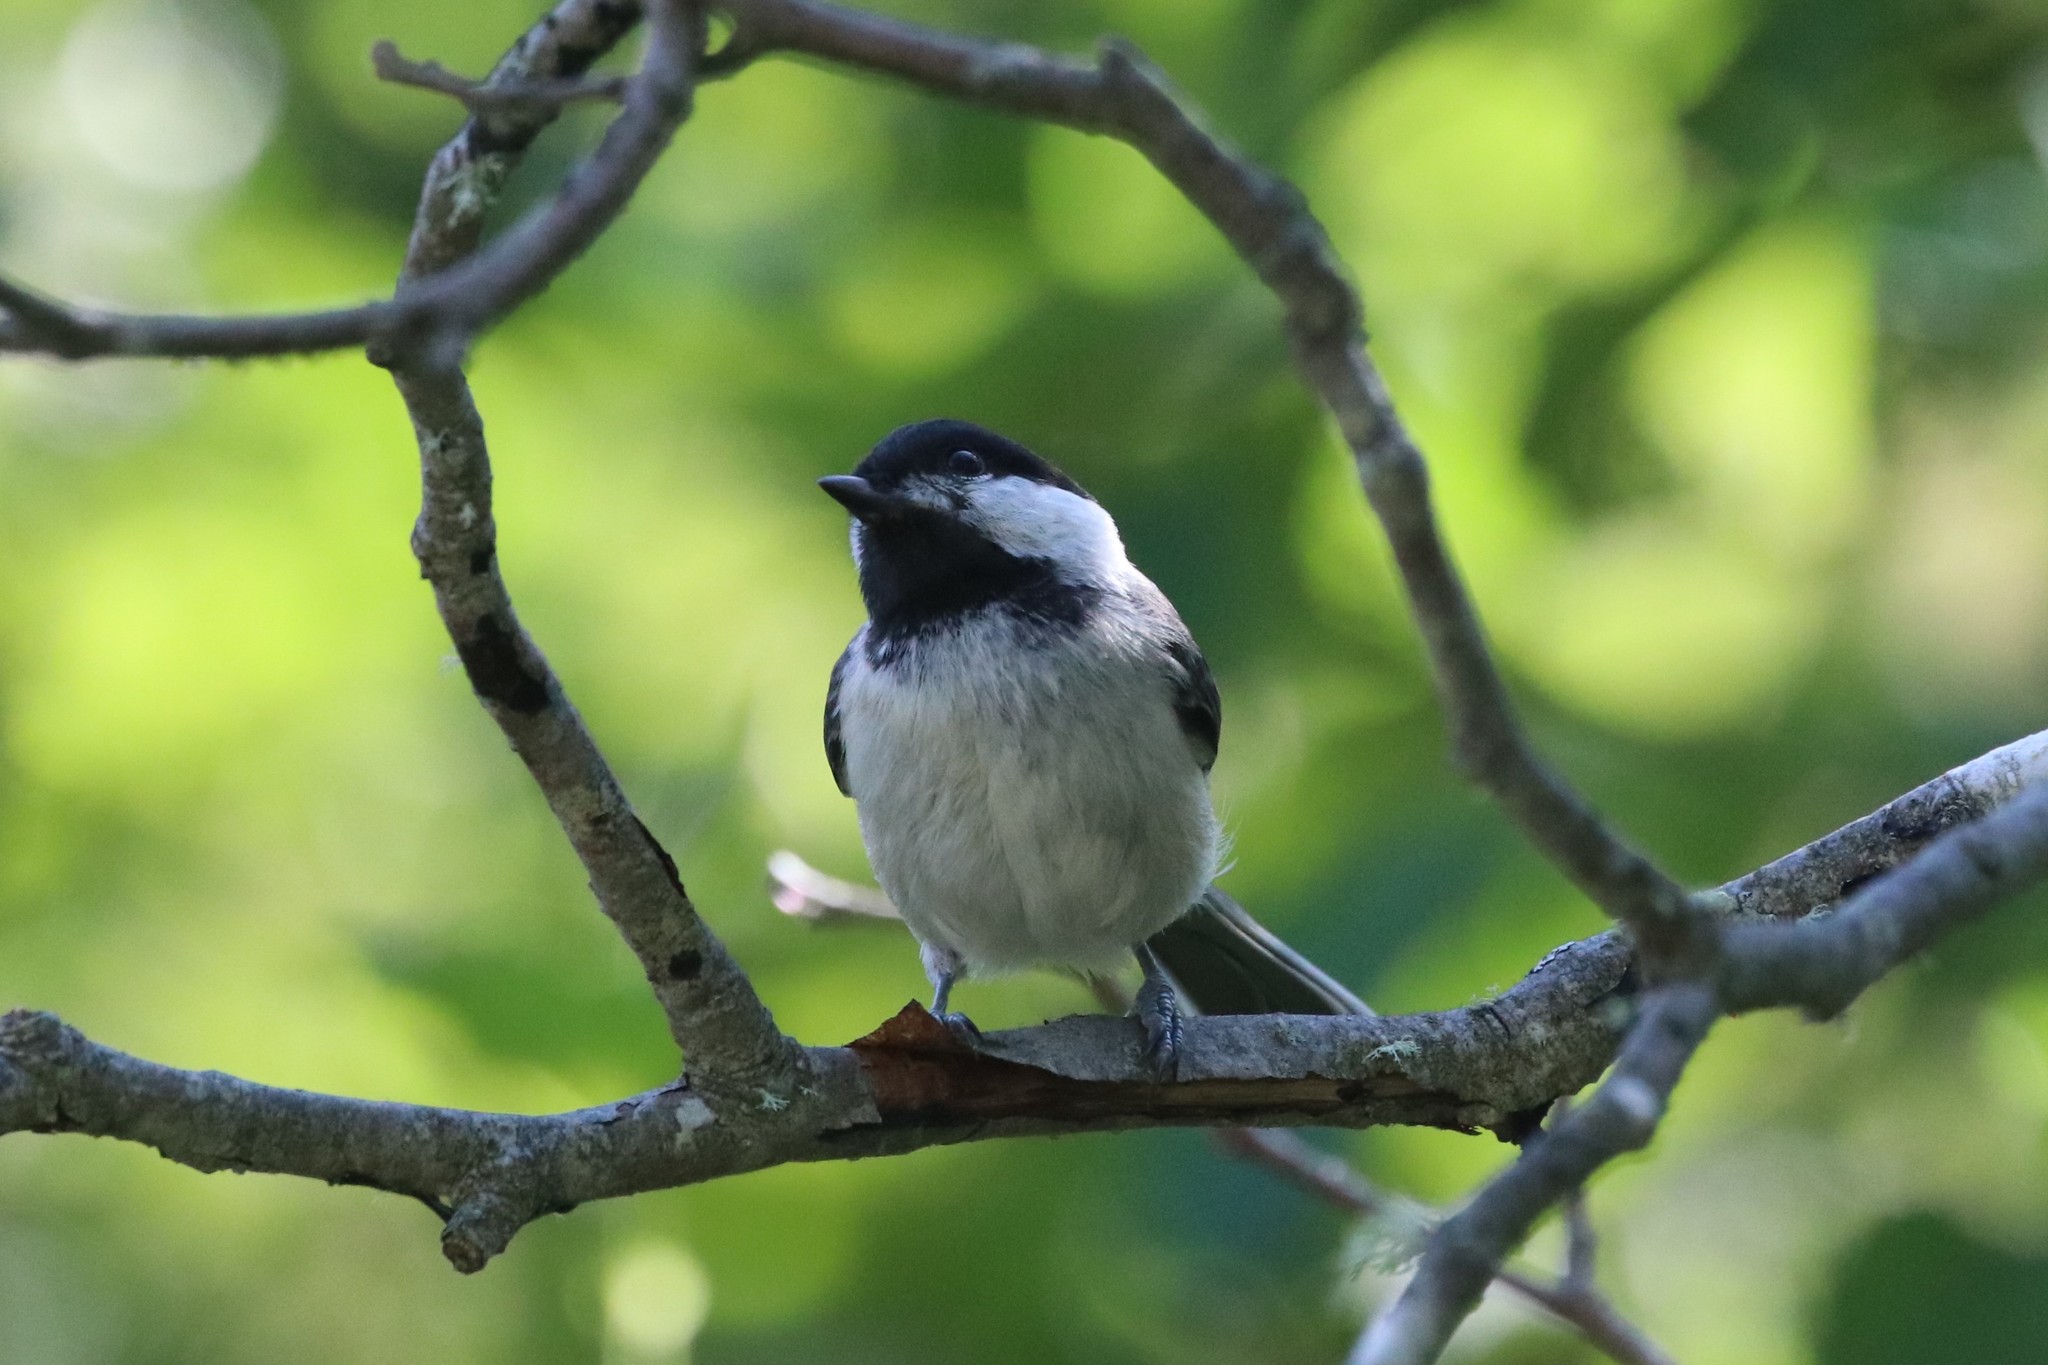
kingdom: Animalia
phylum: Chordata
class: Aves
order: Passeriformes
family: Paridae
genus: Poecile
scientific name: Poecile atricapillus
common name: Black-capped chickadee
